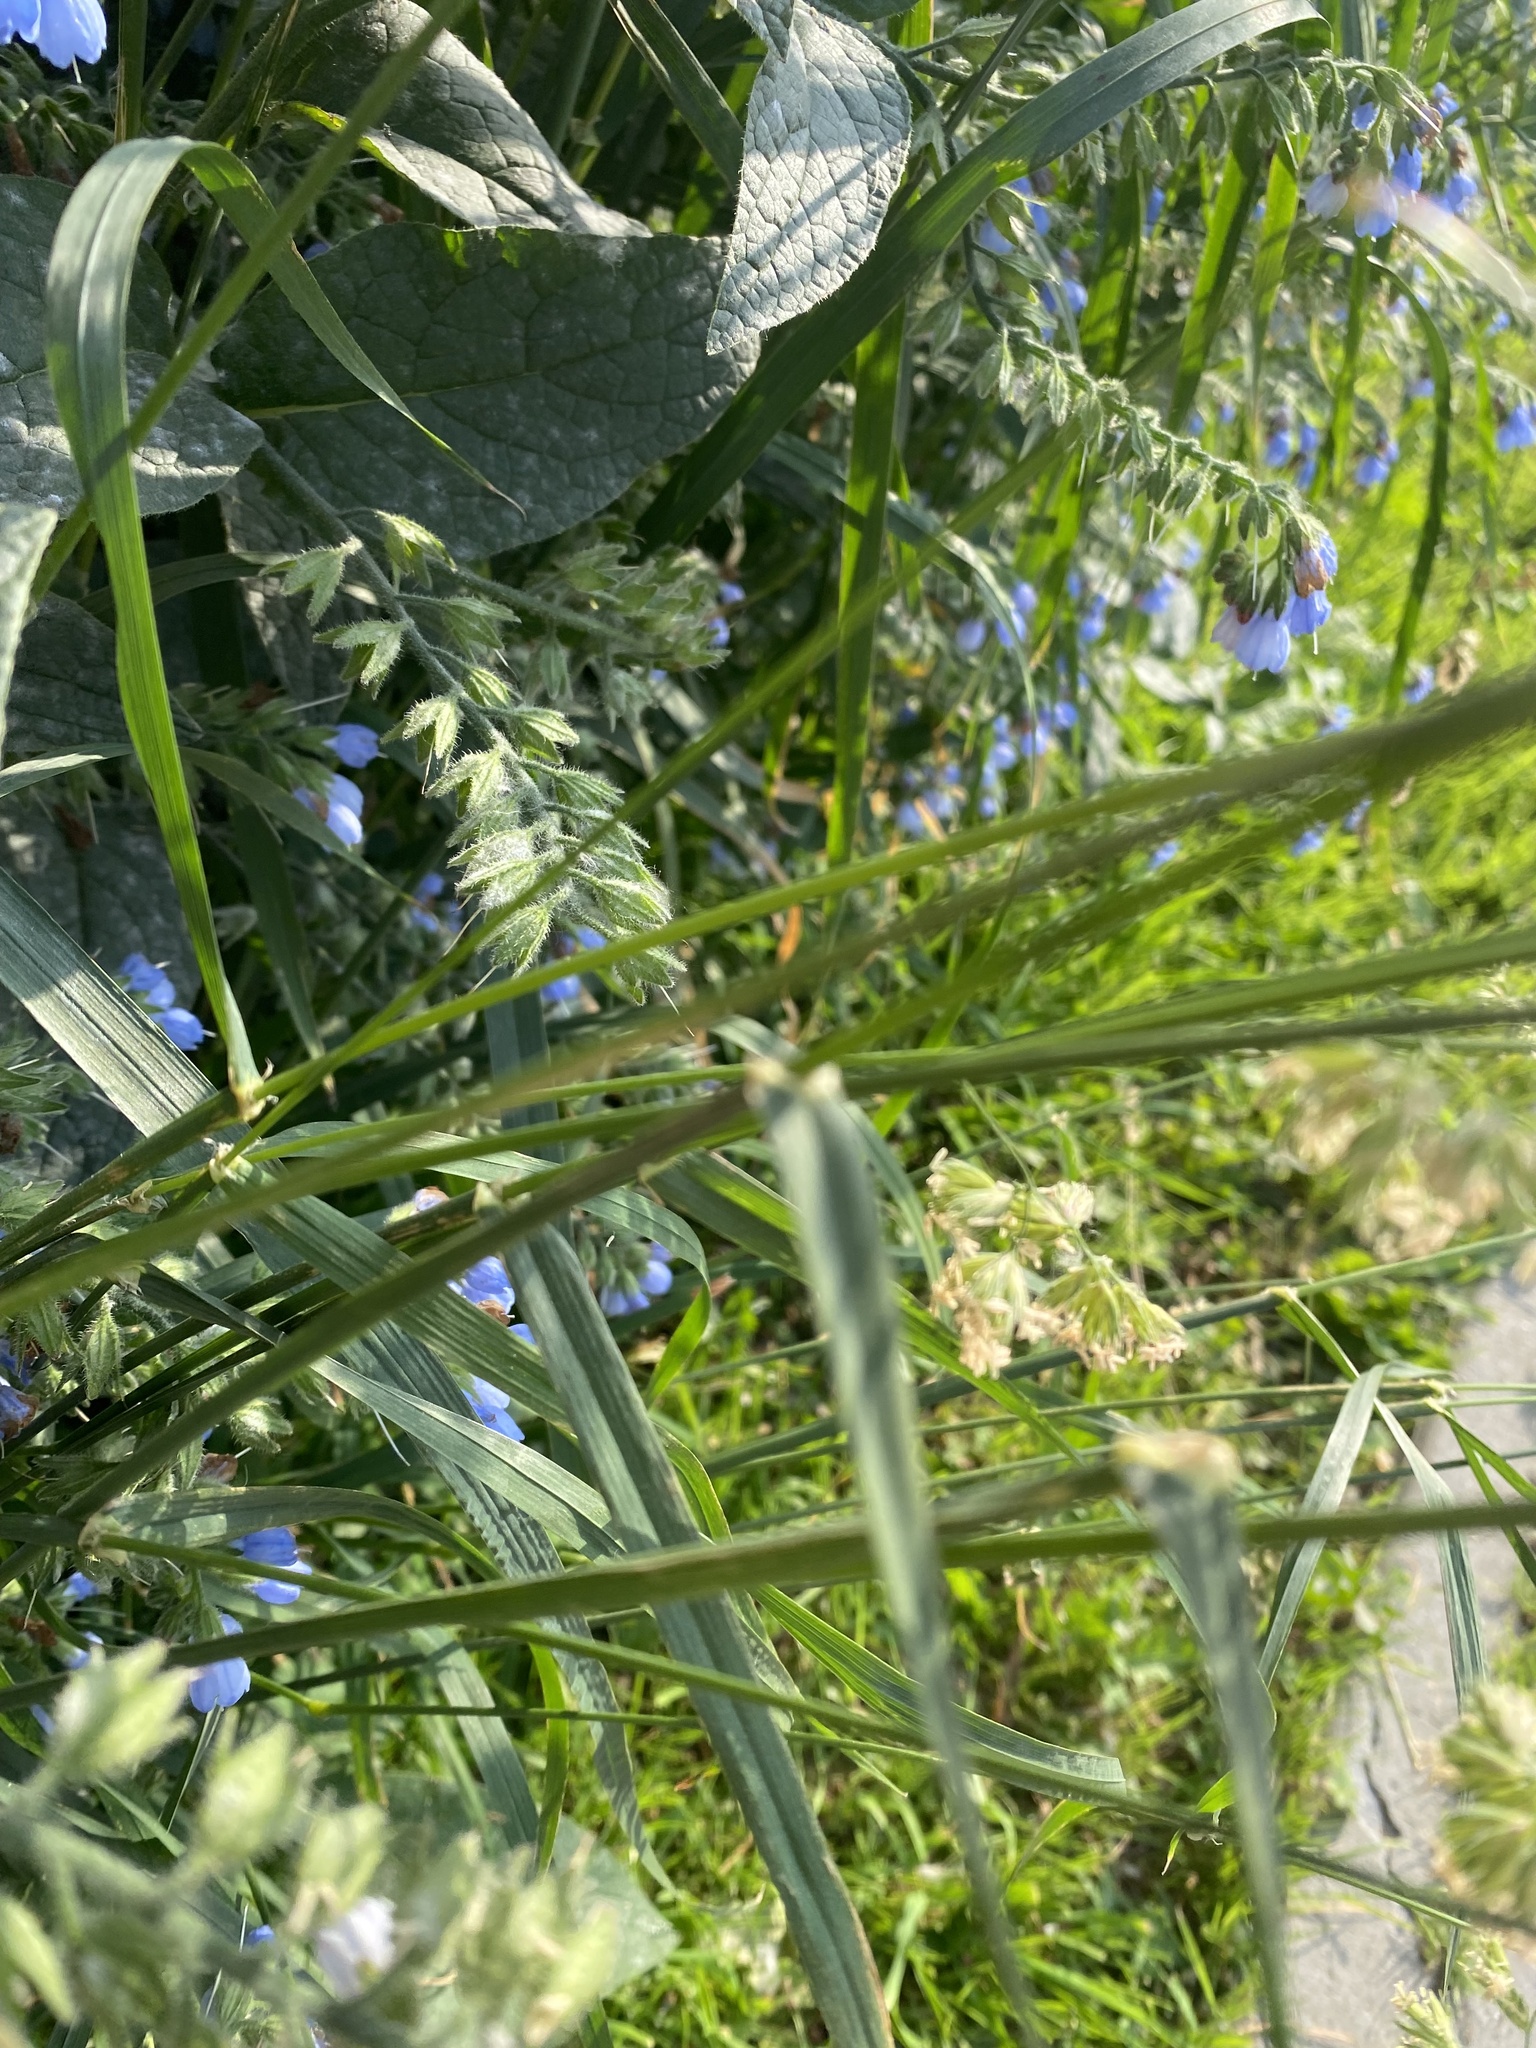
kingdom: Plantae
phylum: Tracheophyta
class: Liliopsida
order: Poales
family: Poaceae
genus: Dactylis
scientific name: Dactylis glomerata
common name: Orchardgrass
